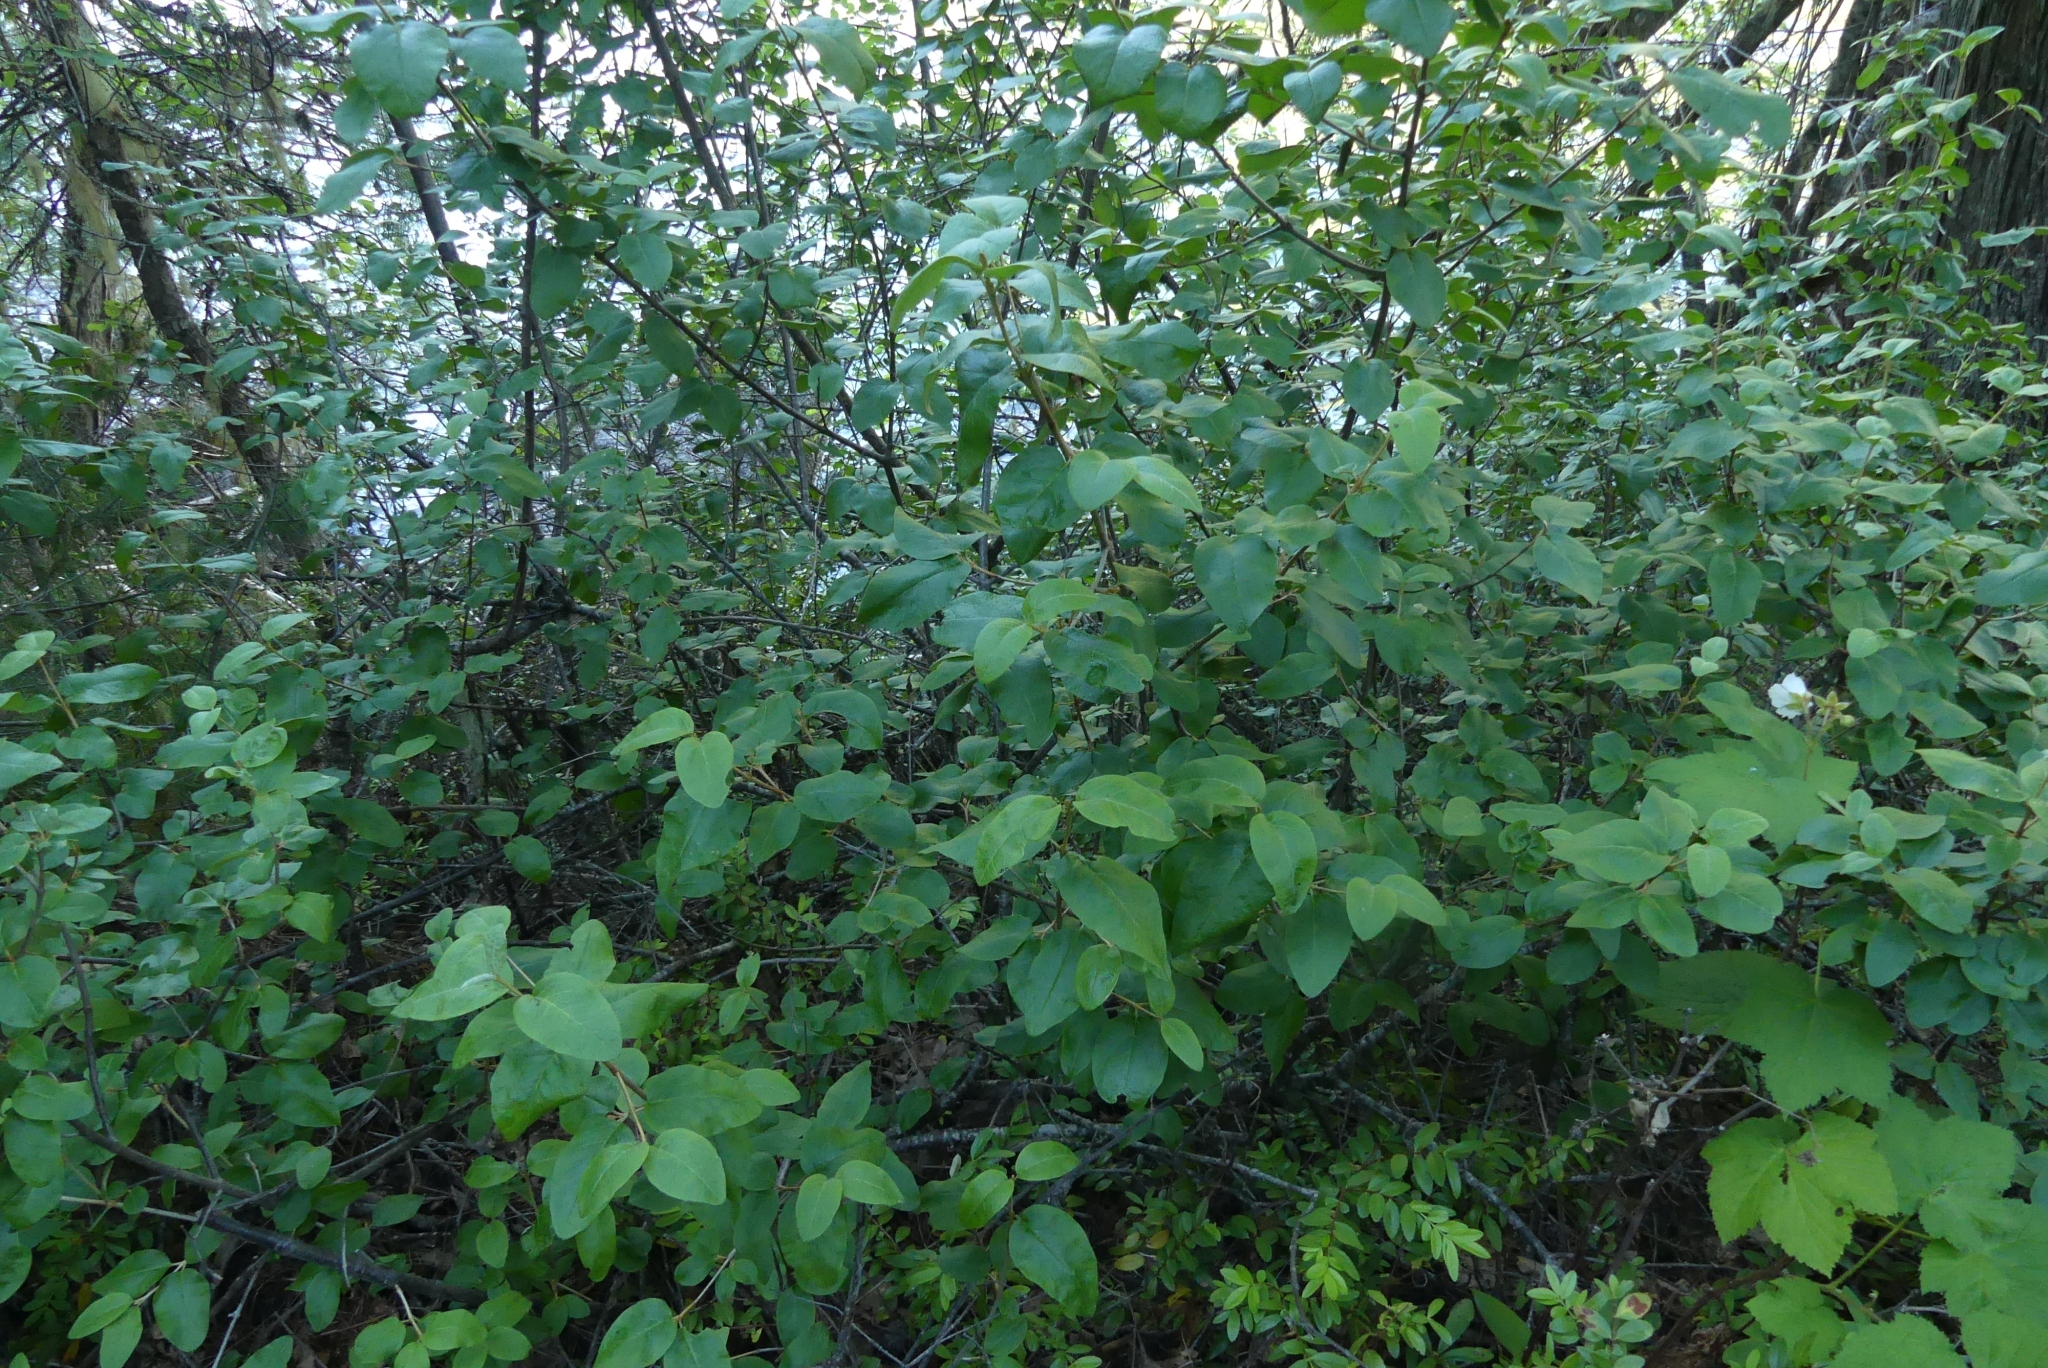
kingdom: Plantae
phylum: Tracheophyta
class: Magnoliopsida
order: Rosales
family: Elaeagnaceae
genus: Shepherdia
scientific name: Shepherdia canadensis
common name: Soapberry
